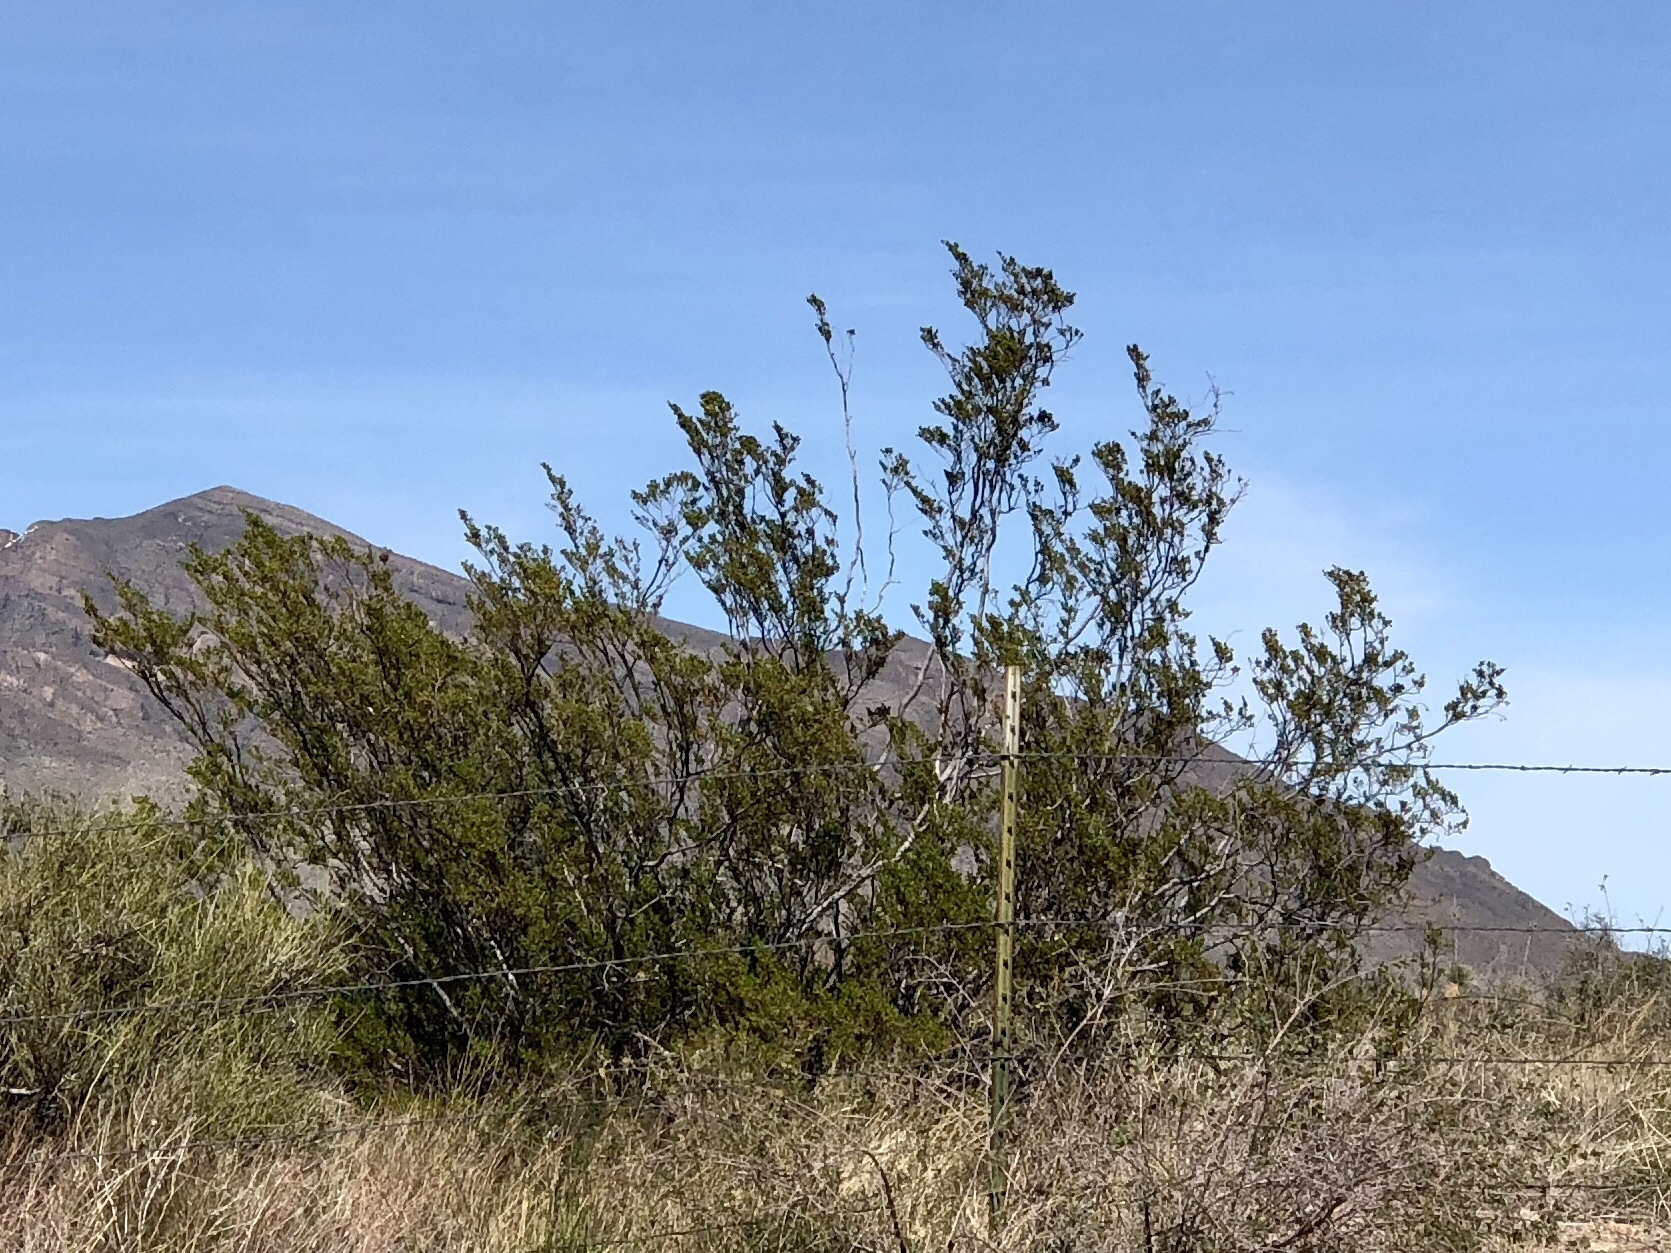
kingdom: Plantae
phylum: Tracheophyta
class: Magnoliopsida
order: Zygophyllales
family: Zygophyllaceae
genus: Larrea
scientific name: Larrea tridentata
